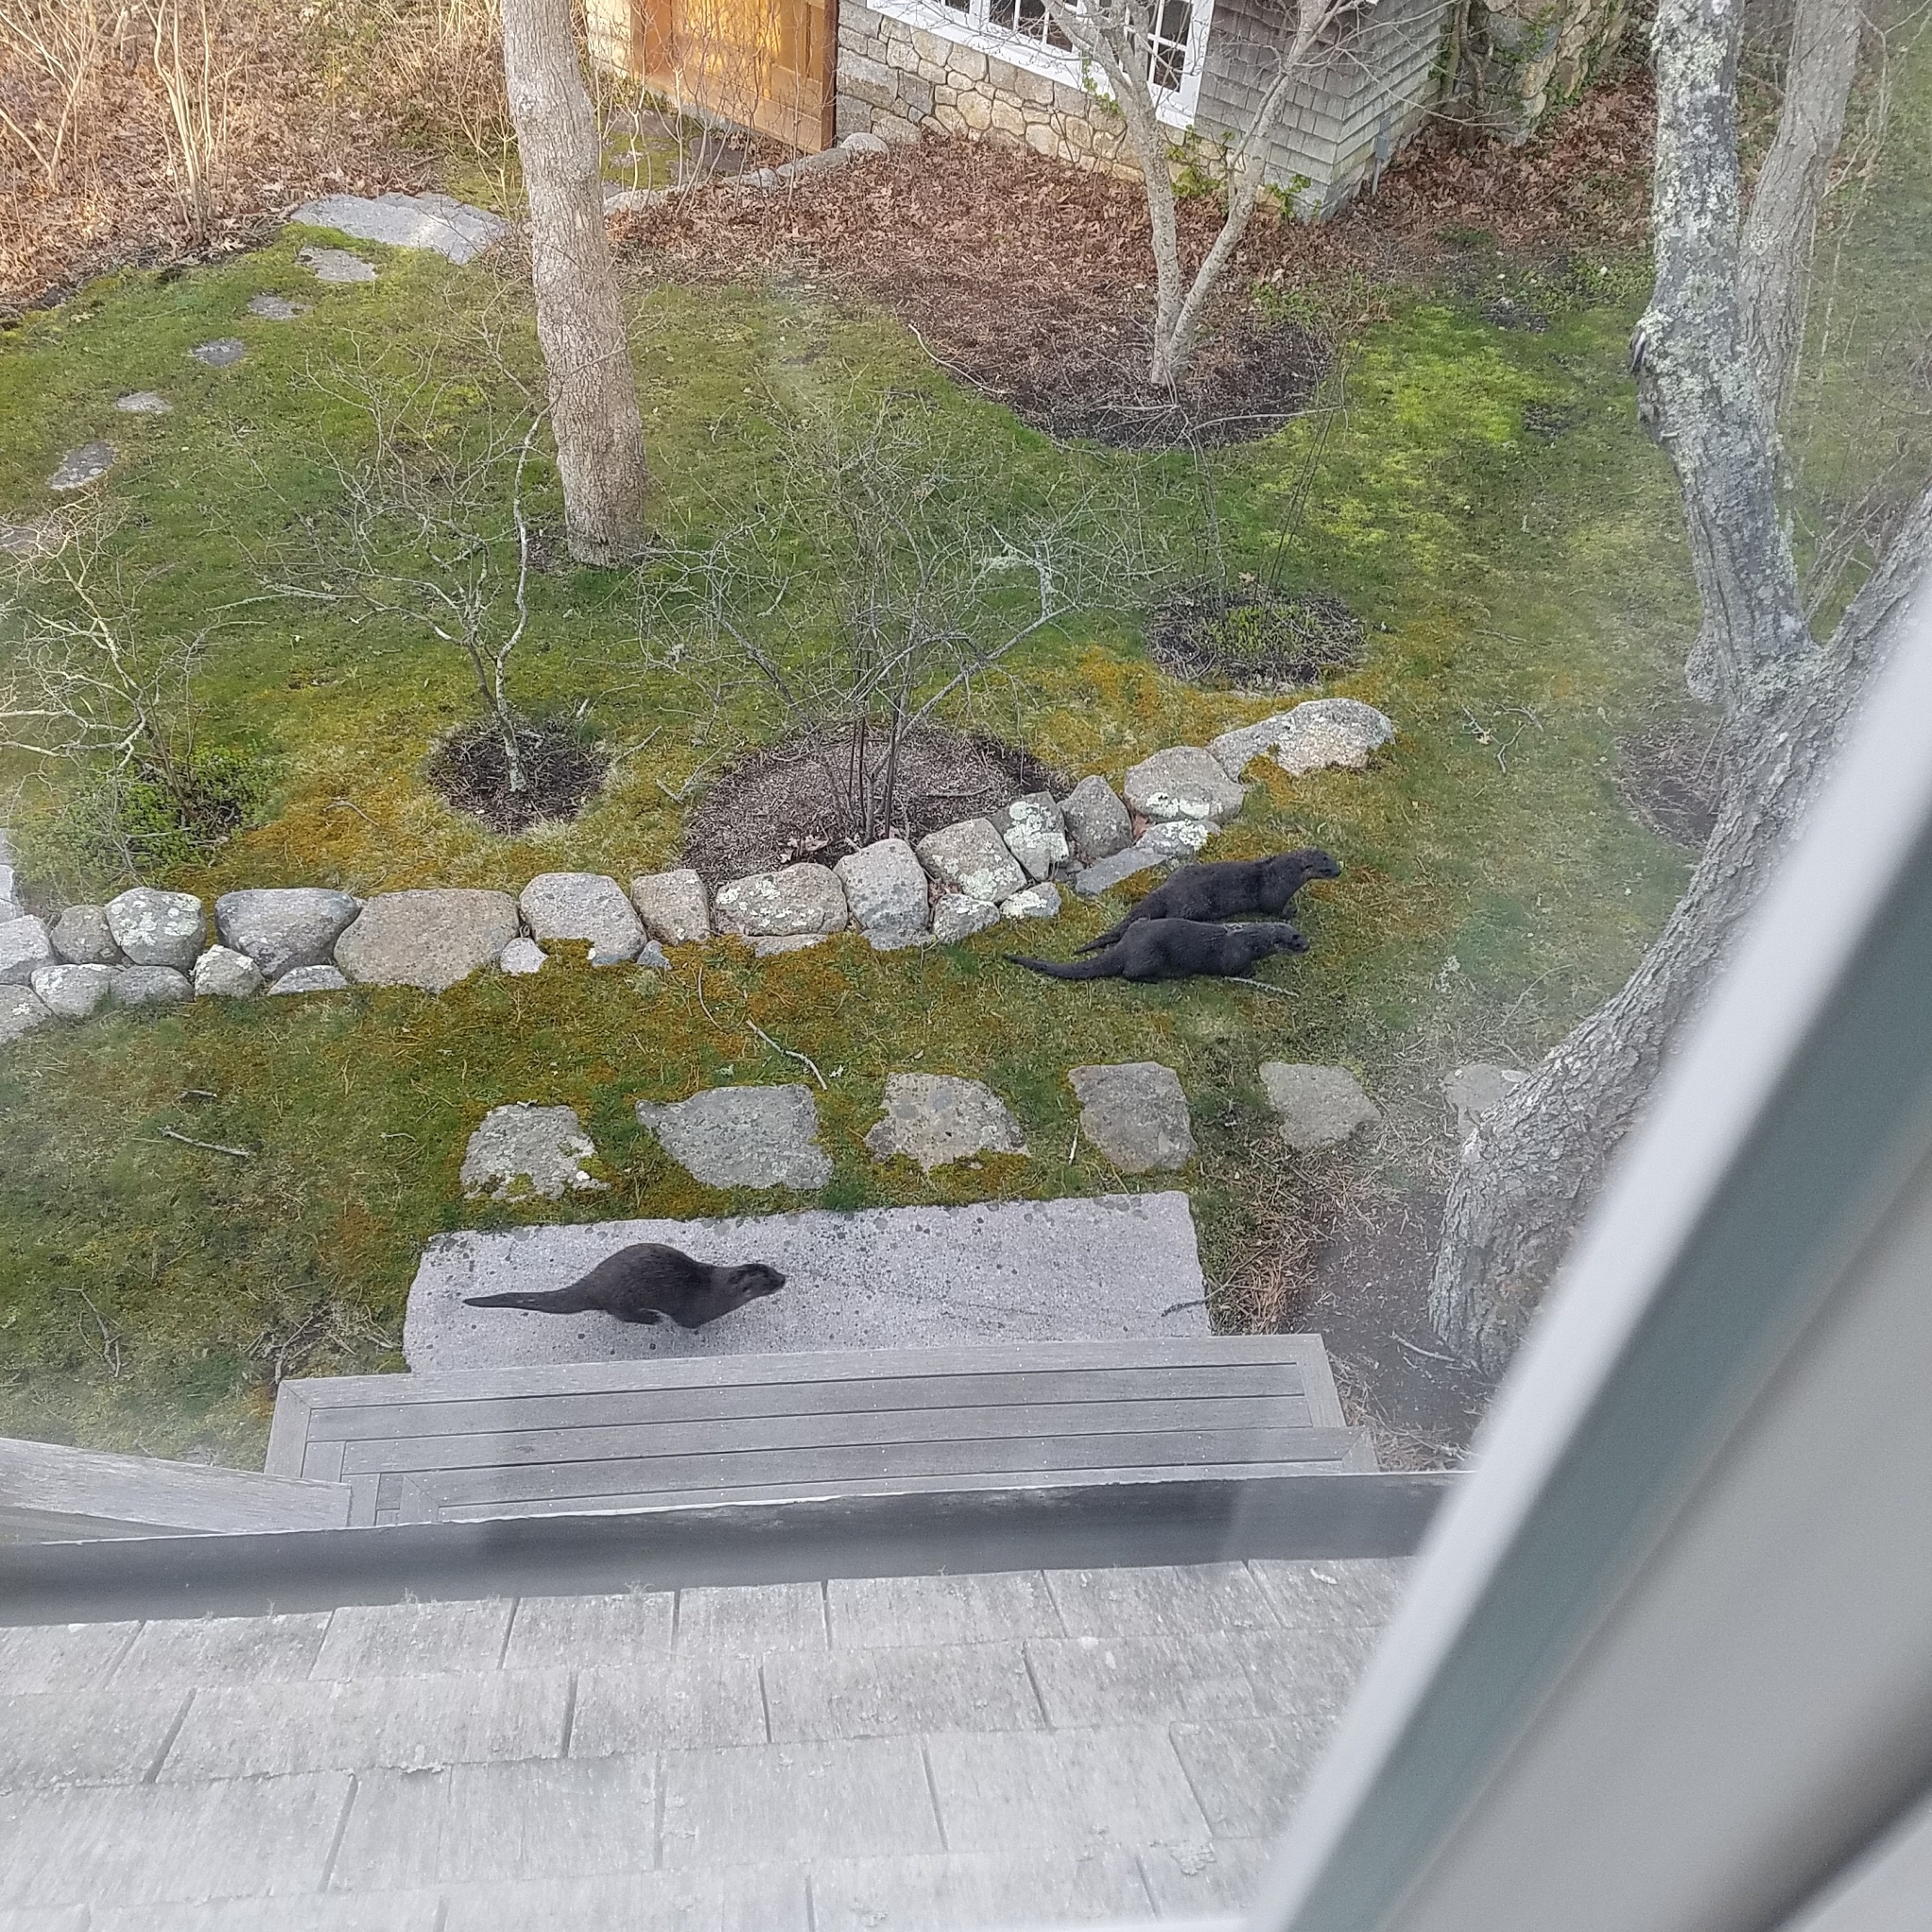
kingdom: Animalia
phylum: Chordata
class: Mammalia
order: Carnivora
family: Mustelidae
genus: Lontra
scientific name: Lontra canadensis
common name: North american river otter
